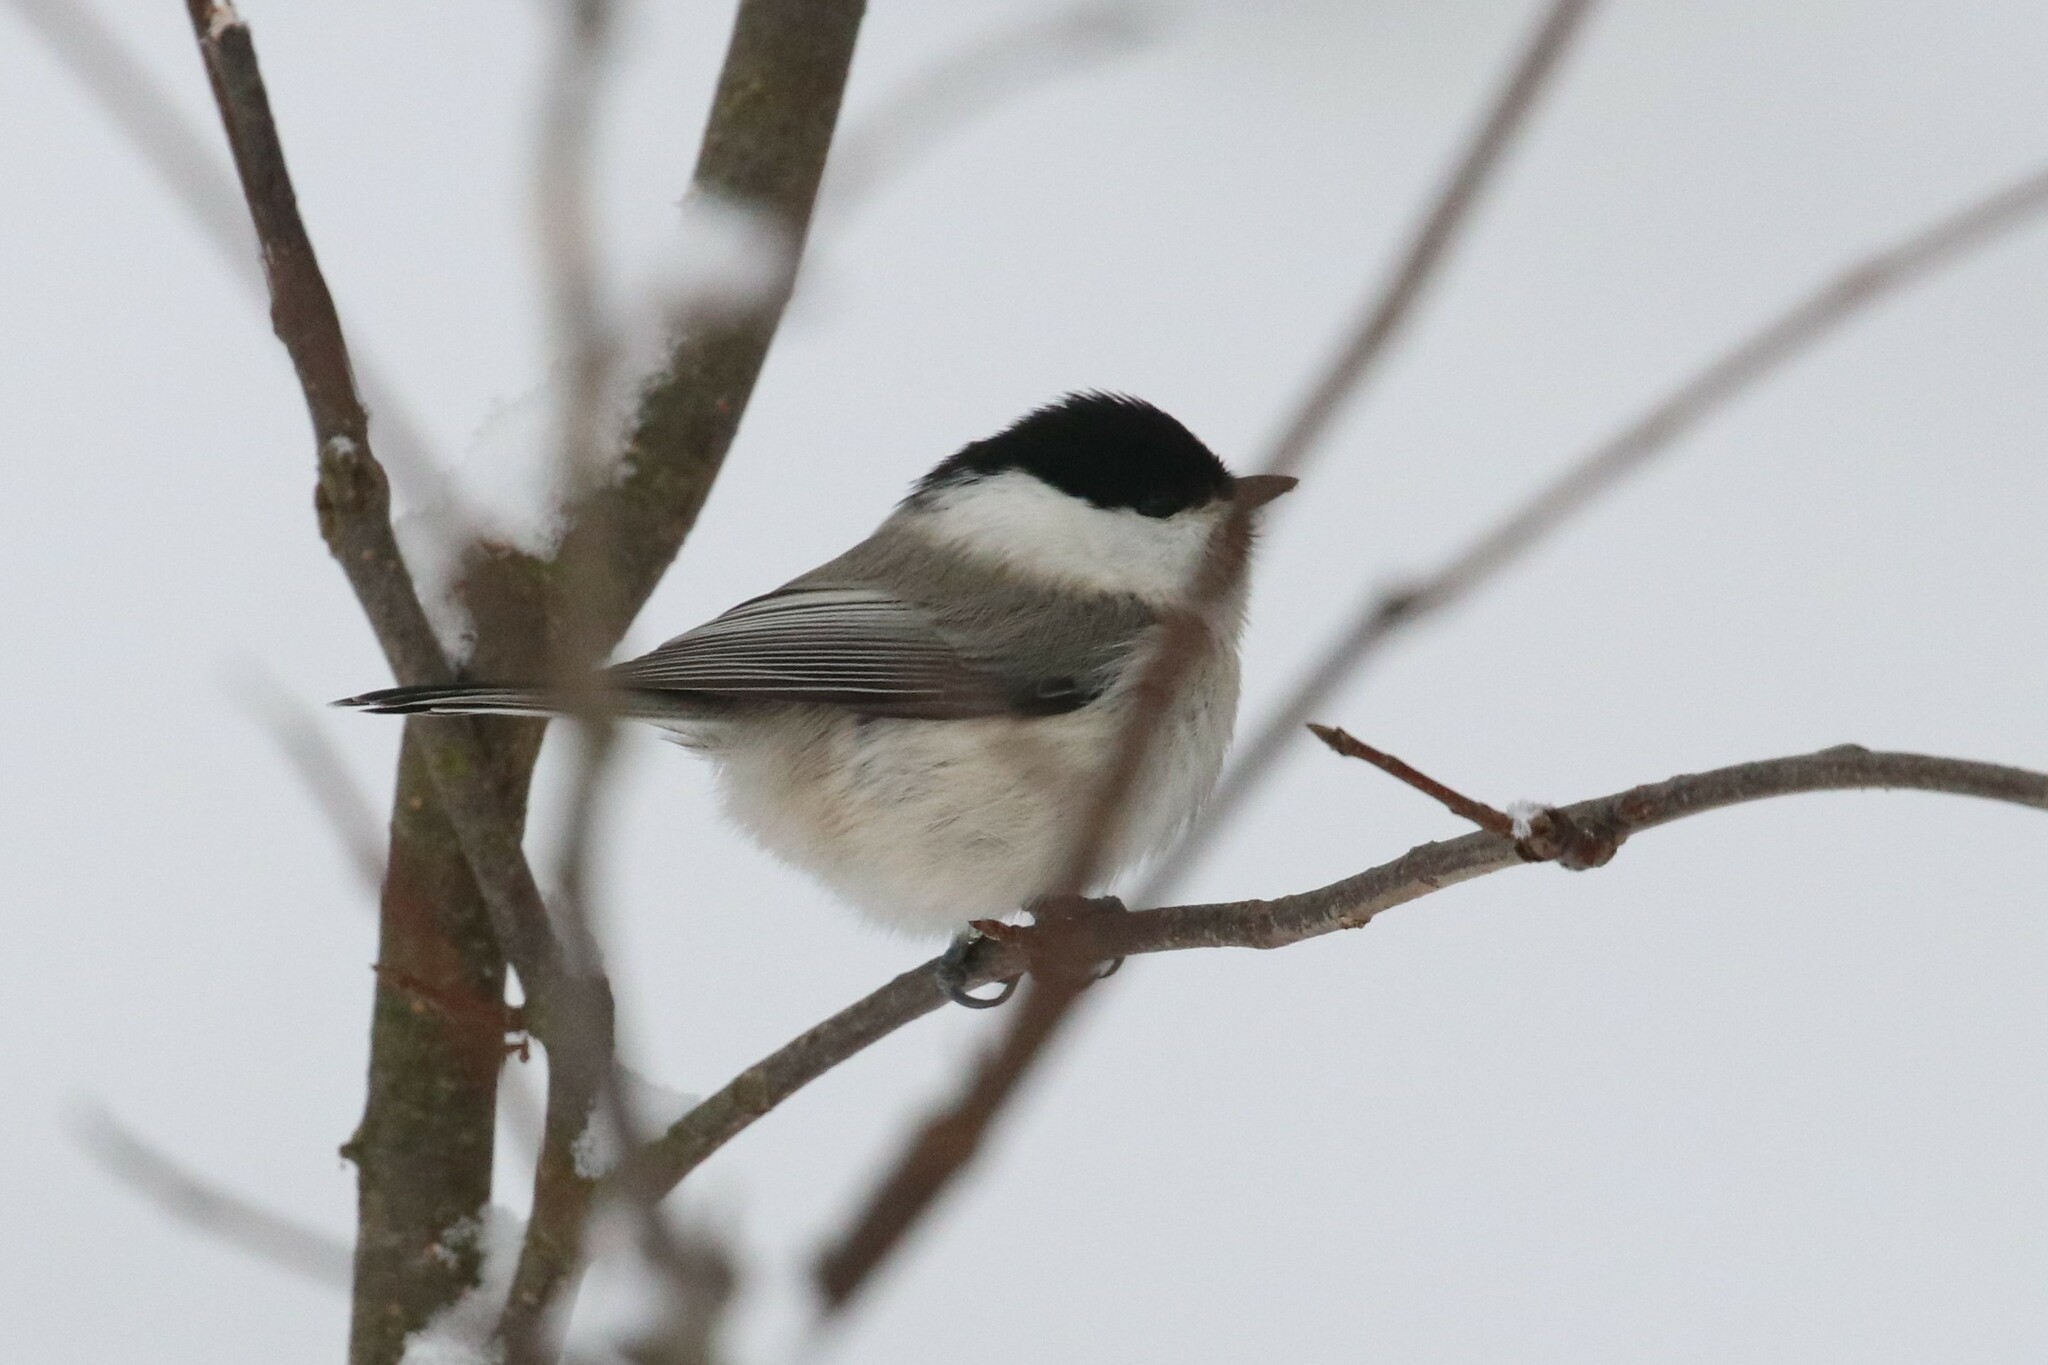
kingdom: Animalia
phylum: Chordata
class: Aves
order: Passeriformes
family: Paridae
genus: Poecile
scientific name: Poecile montanus
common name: Willow tit
